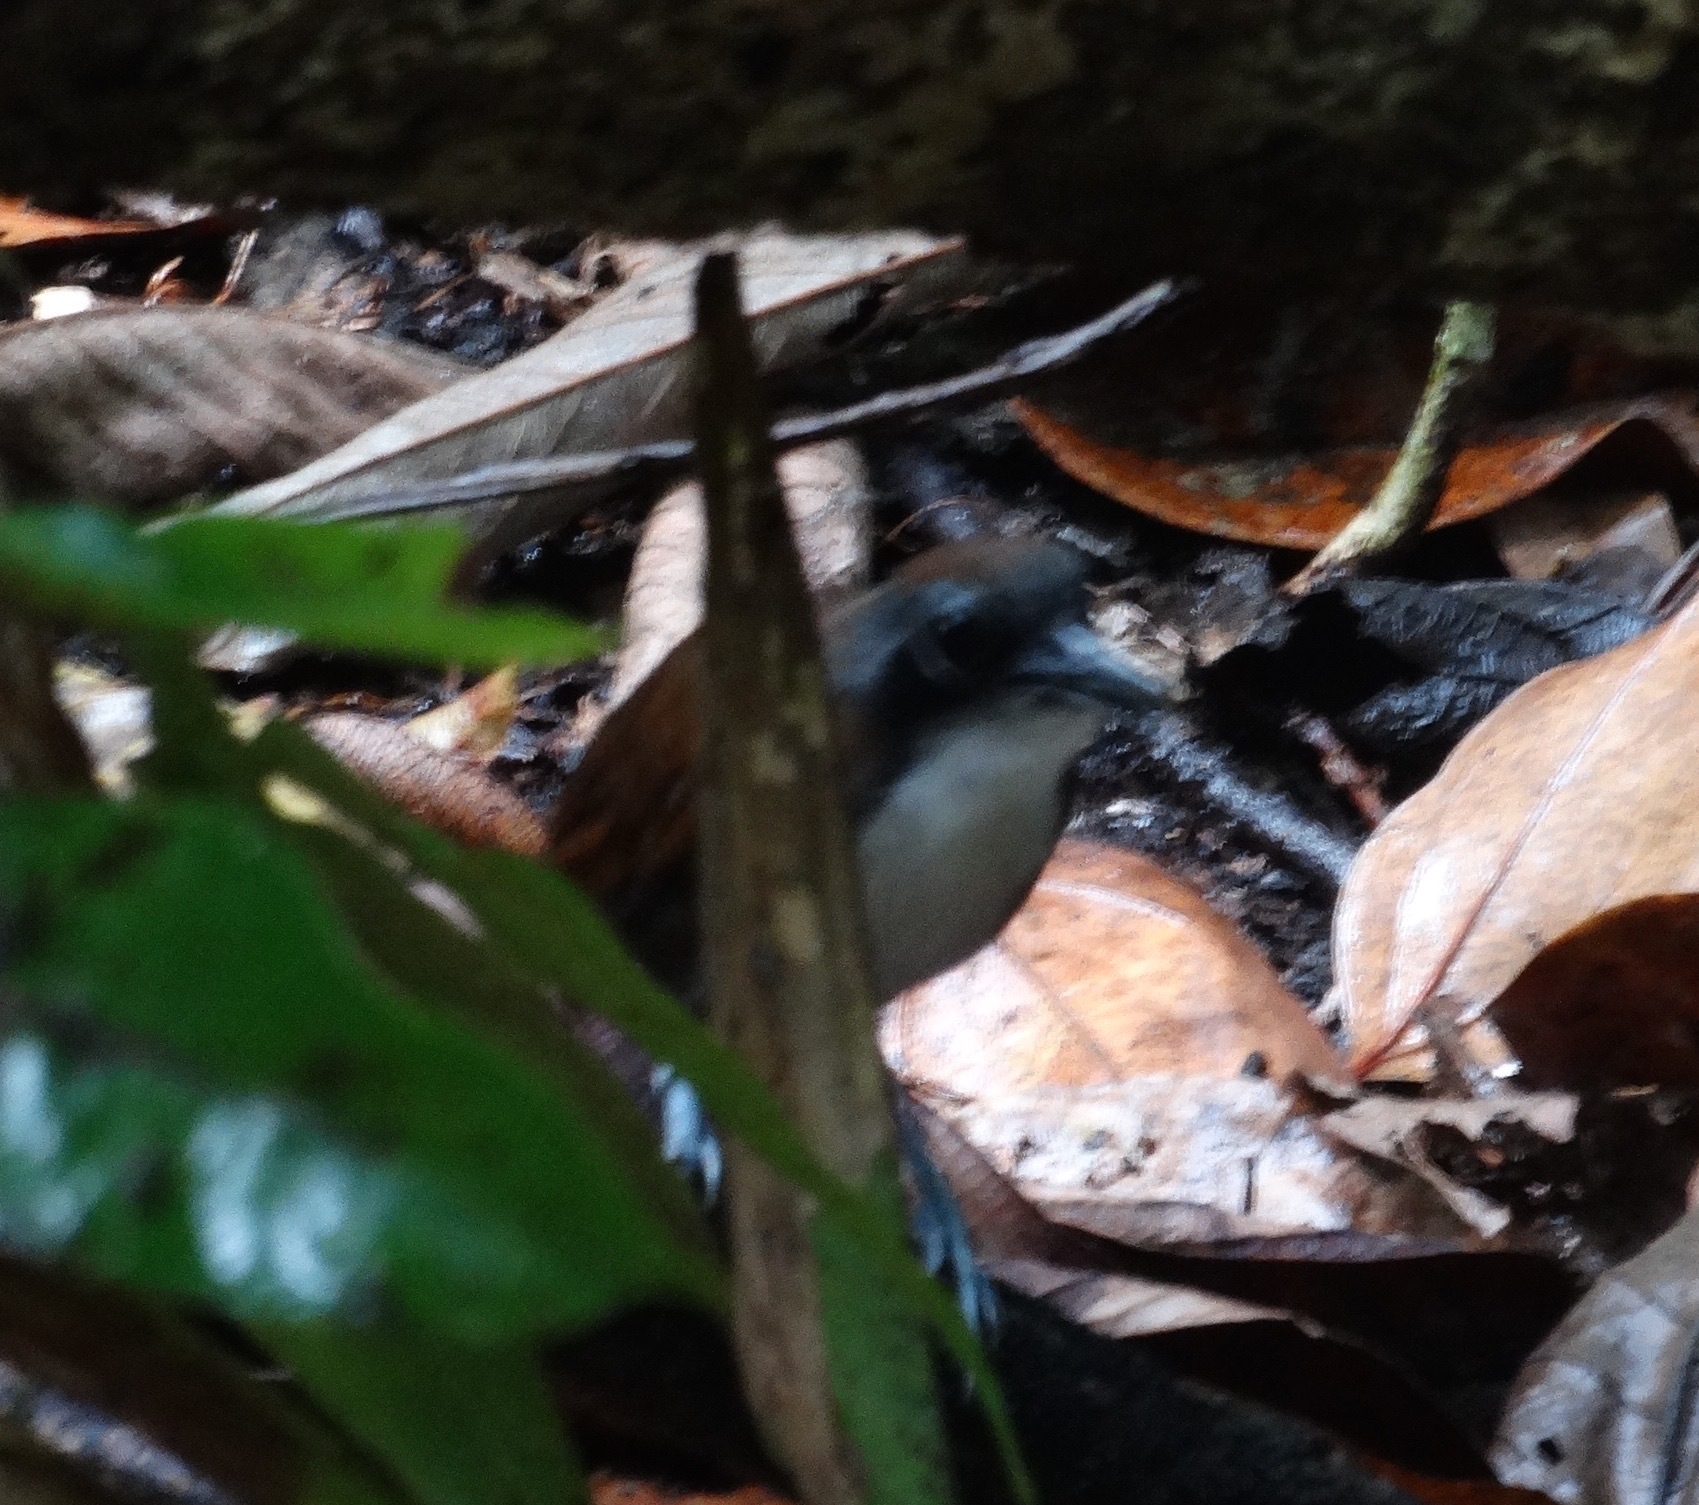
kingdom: Animalia
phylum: Chordata
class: Aves
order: Passeriformes
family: Thamnophilidae
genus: Gymnopithys
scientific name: Gymnopithys leucaspis
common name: White-cheeked antbird
